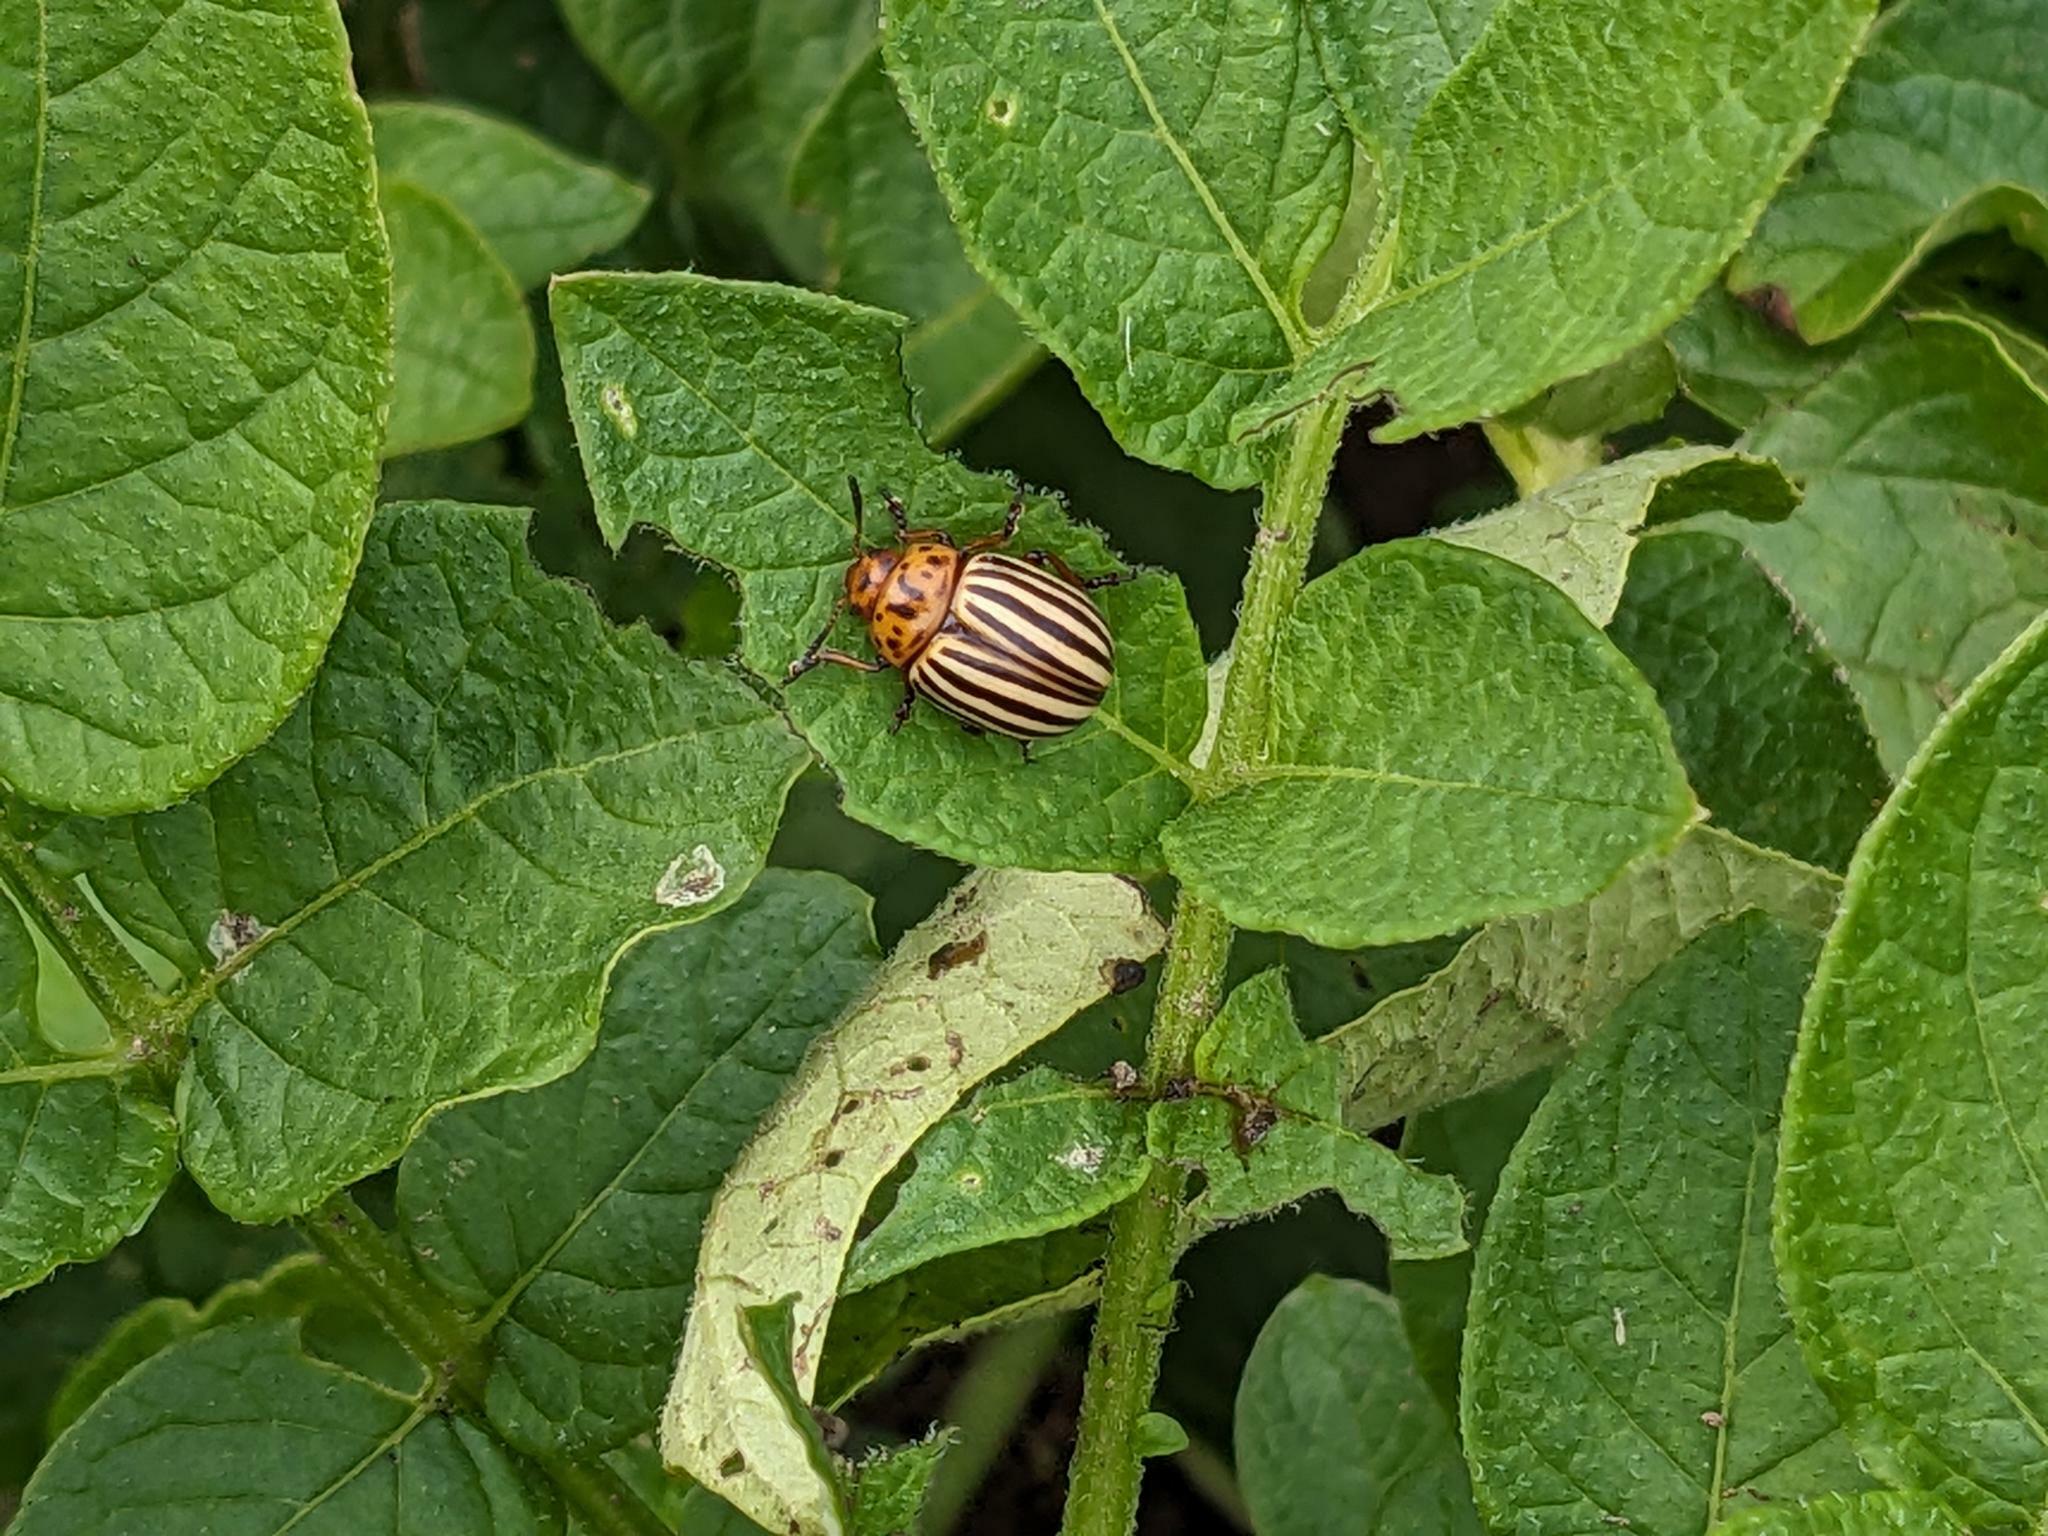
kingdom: Animalia
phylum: Arthropoda
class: Insecta
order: Coleoptera
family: Chrysomelidae
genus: Leptinotarsa
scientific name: Leptinotarsa decemlineata
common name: Colorado potato beetle
